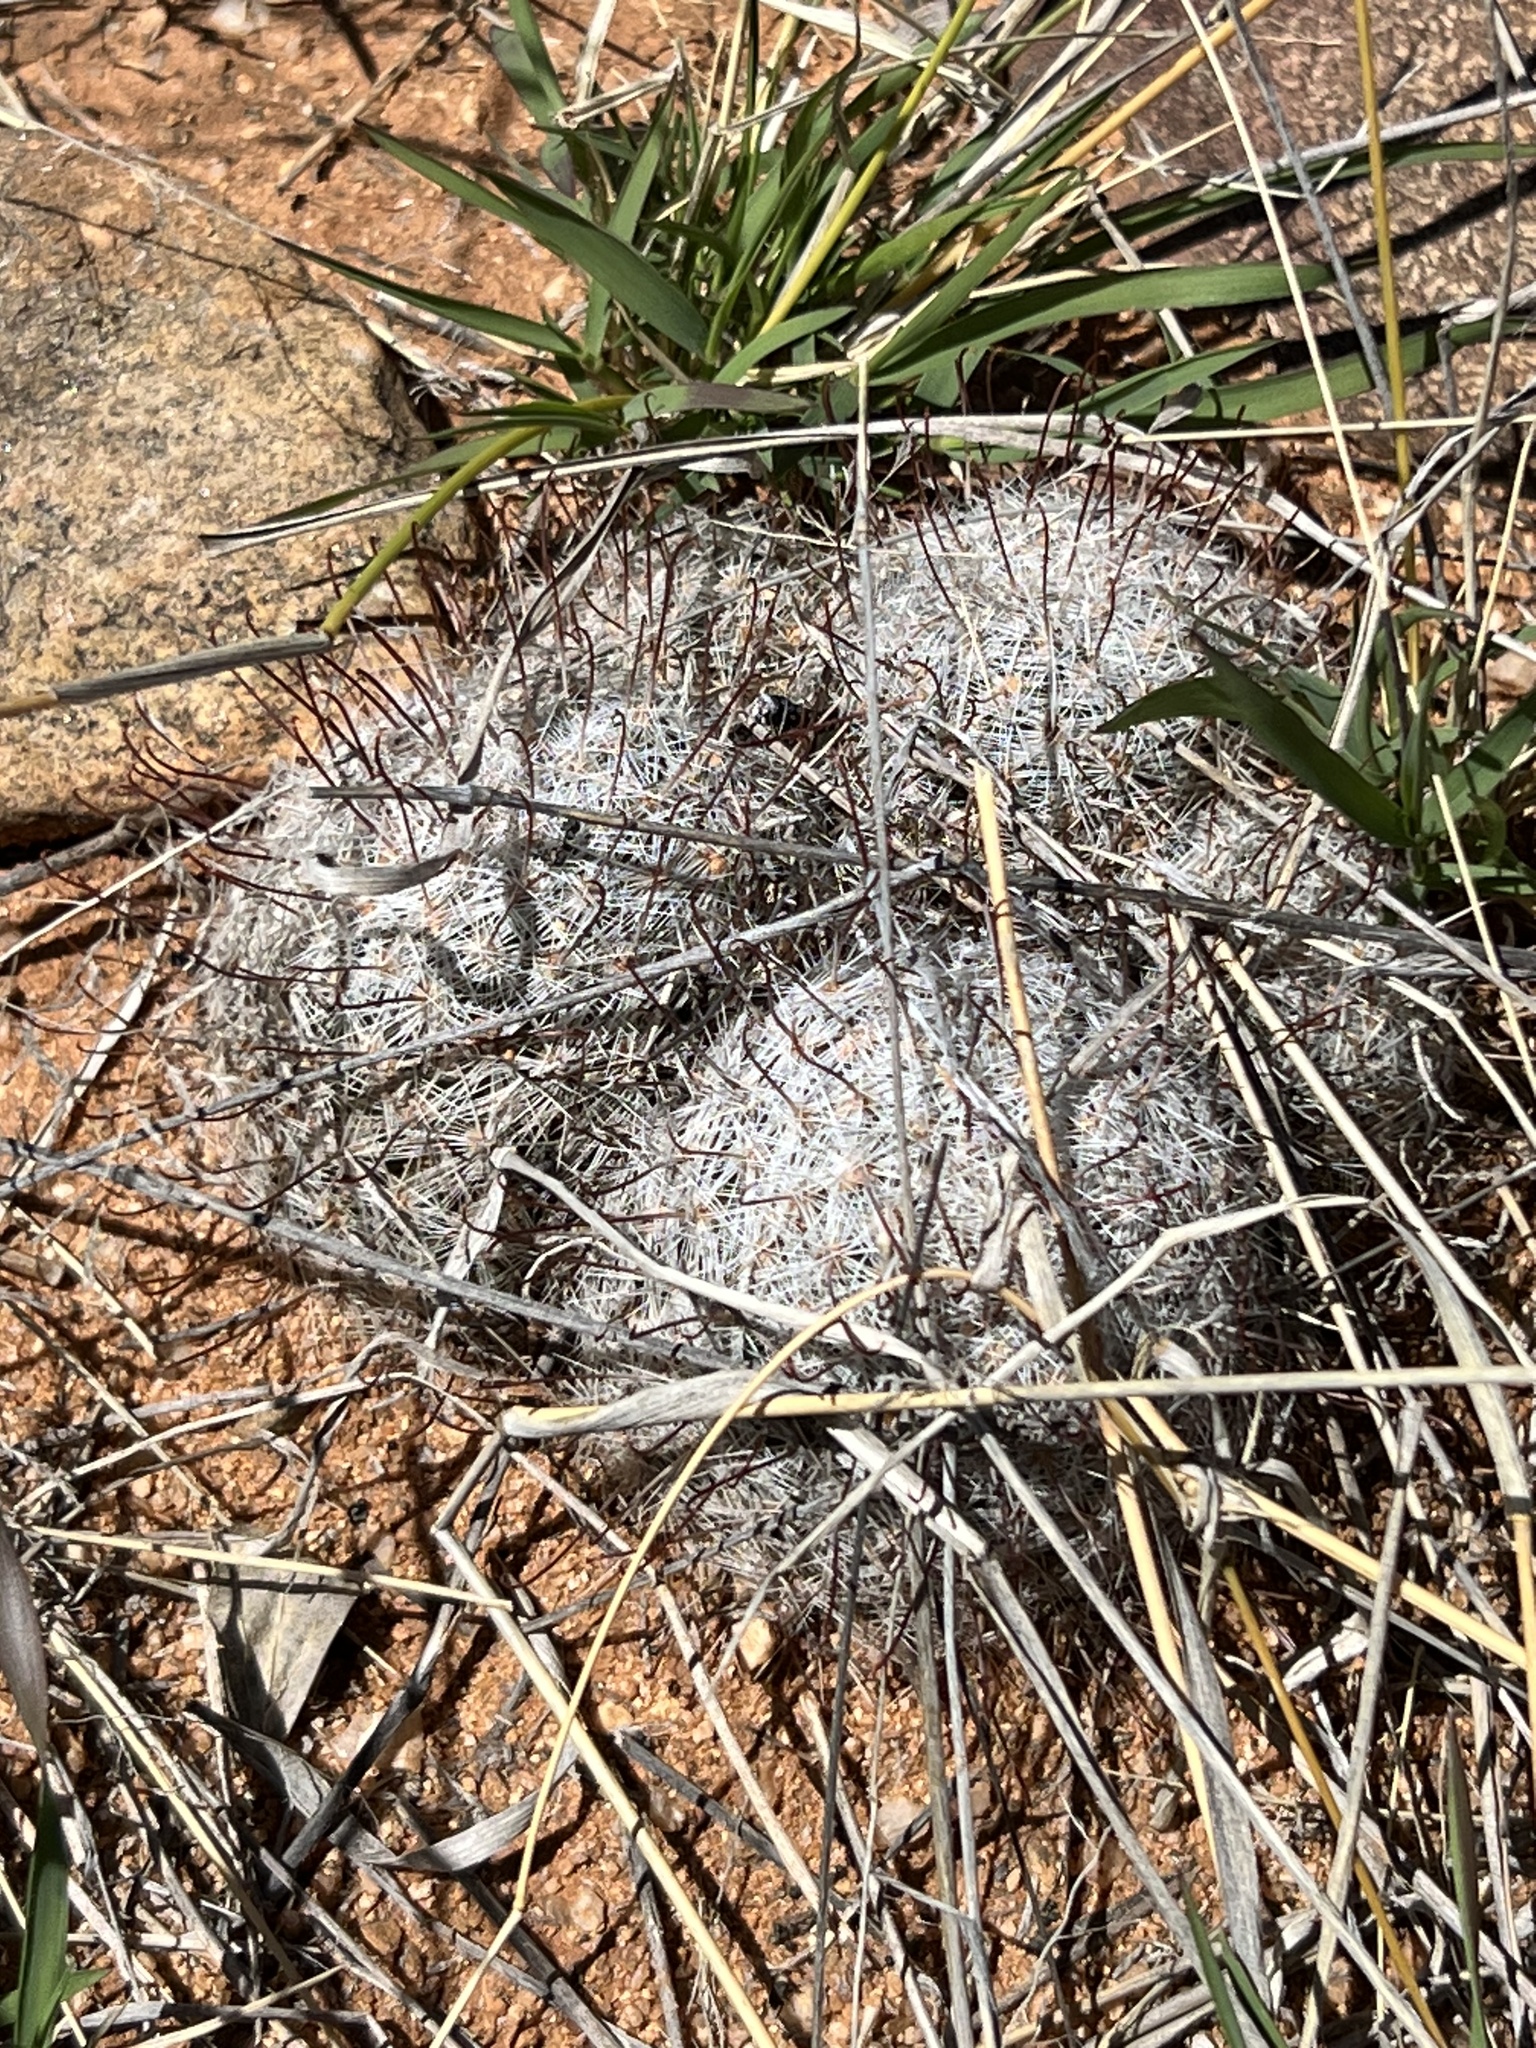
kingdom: Plantae
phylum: Tracheophyta
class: Magnoliopsida
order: Caryophyllales
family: Cactaceae
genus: Cochemiea
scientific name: Cochemiea grahamii
